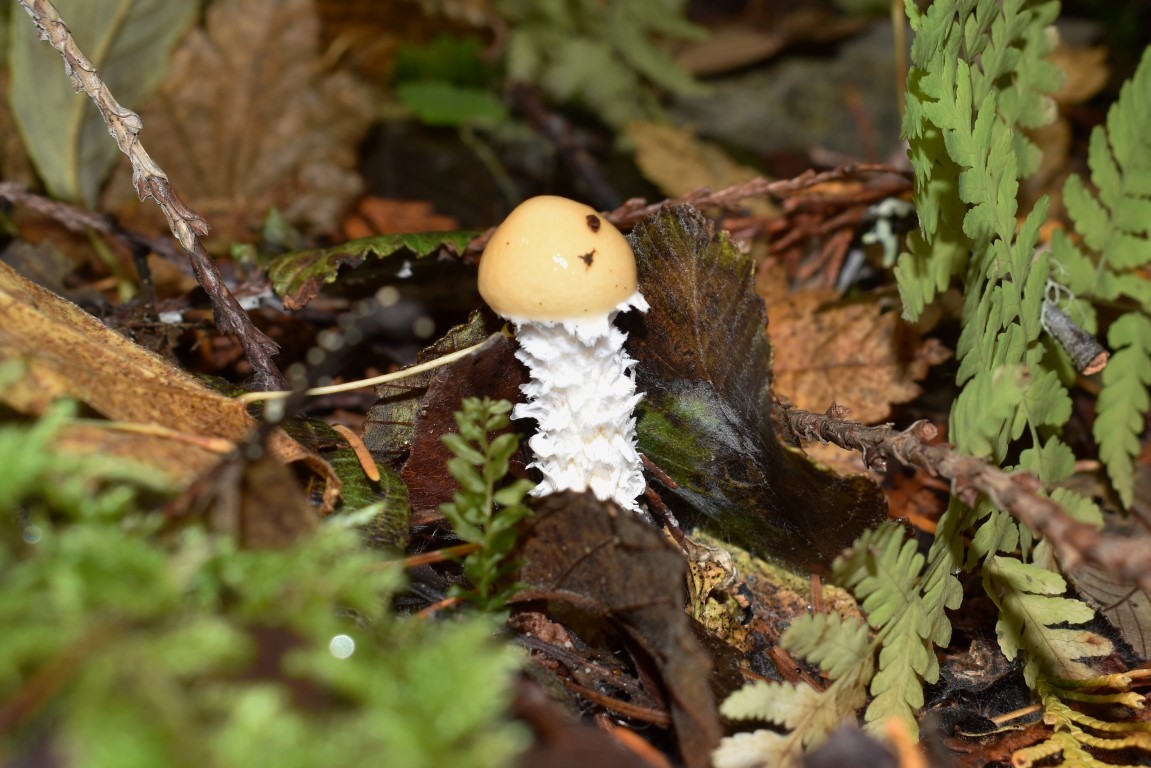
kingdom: Fungi
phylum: Basidiomycota
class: Agaricomycetes
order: Agaricales
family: Strophariaceae
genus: Stropharia
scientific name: Stropharia ambigua
